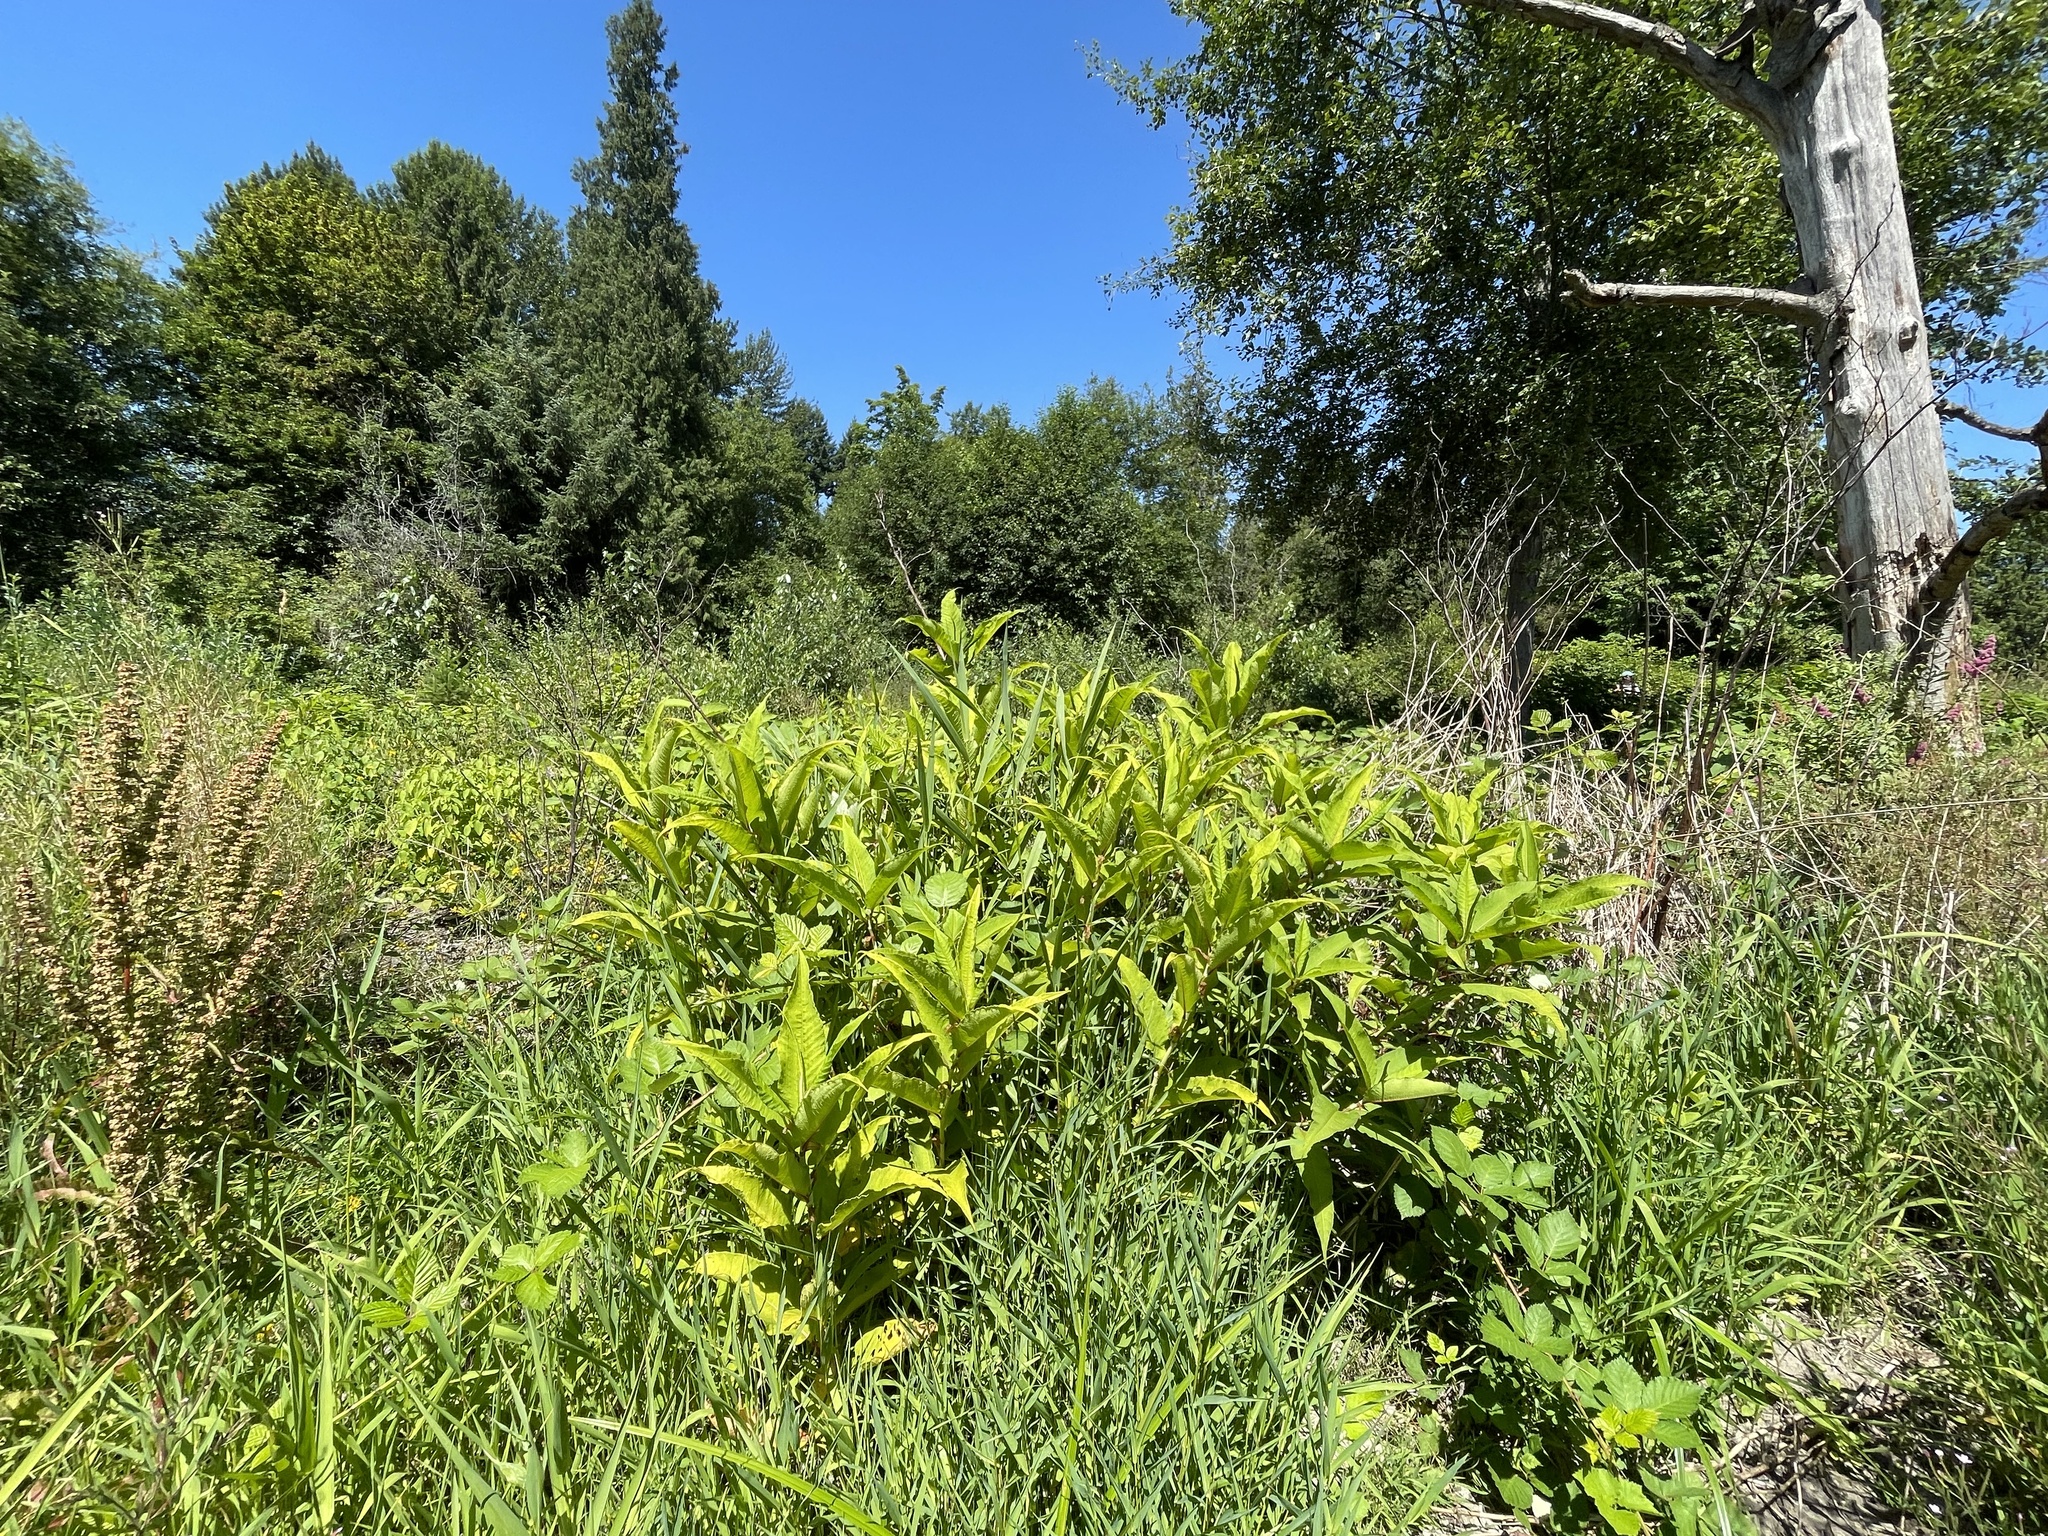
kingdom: Plantae
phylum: Tracheophyta
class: Magnoliopsida
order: Caryophyllales
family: Polygonaceae
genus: Koenigia
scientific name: Koenigia polystachya
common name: Himalayan knotweed
